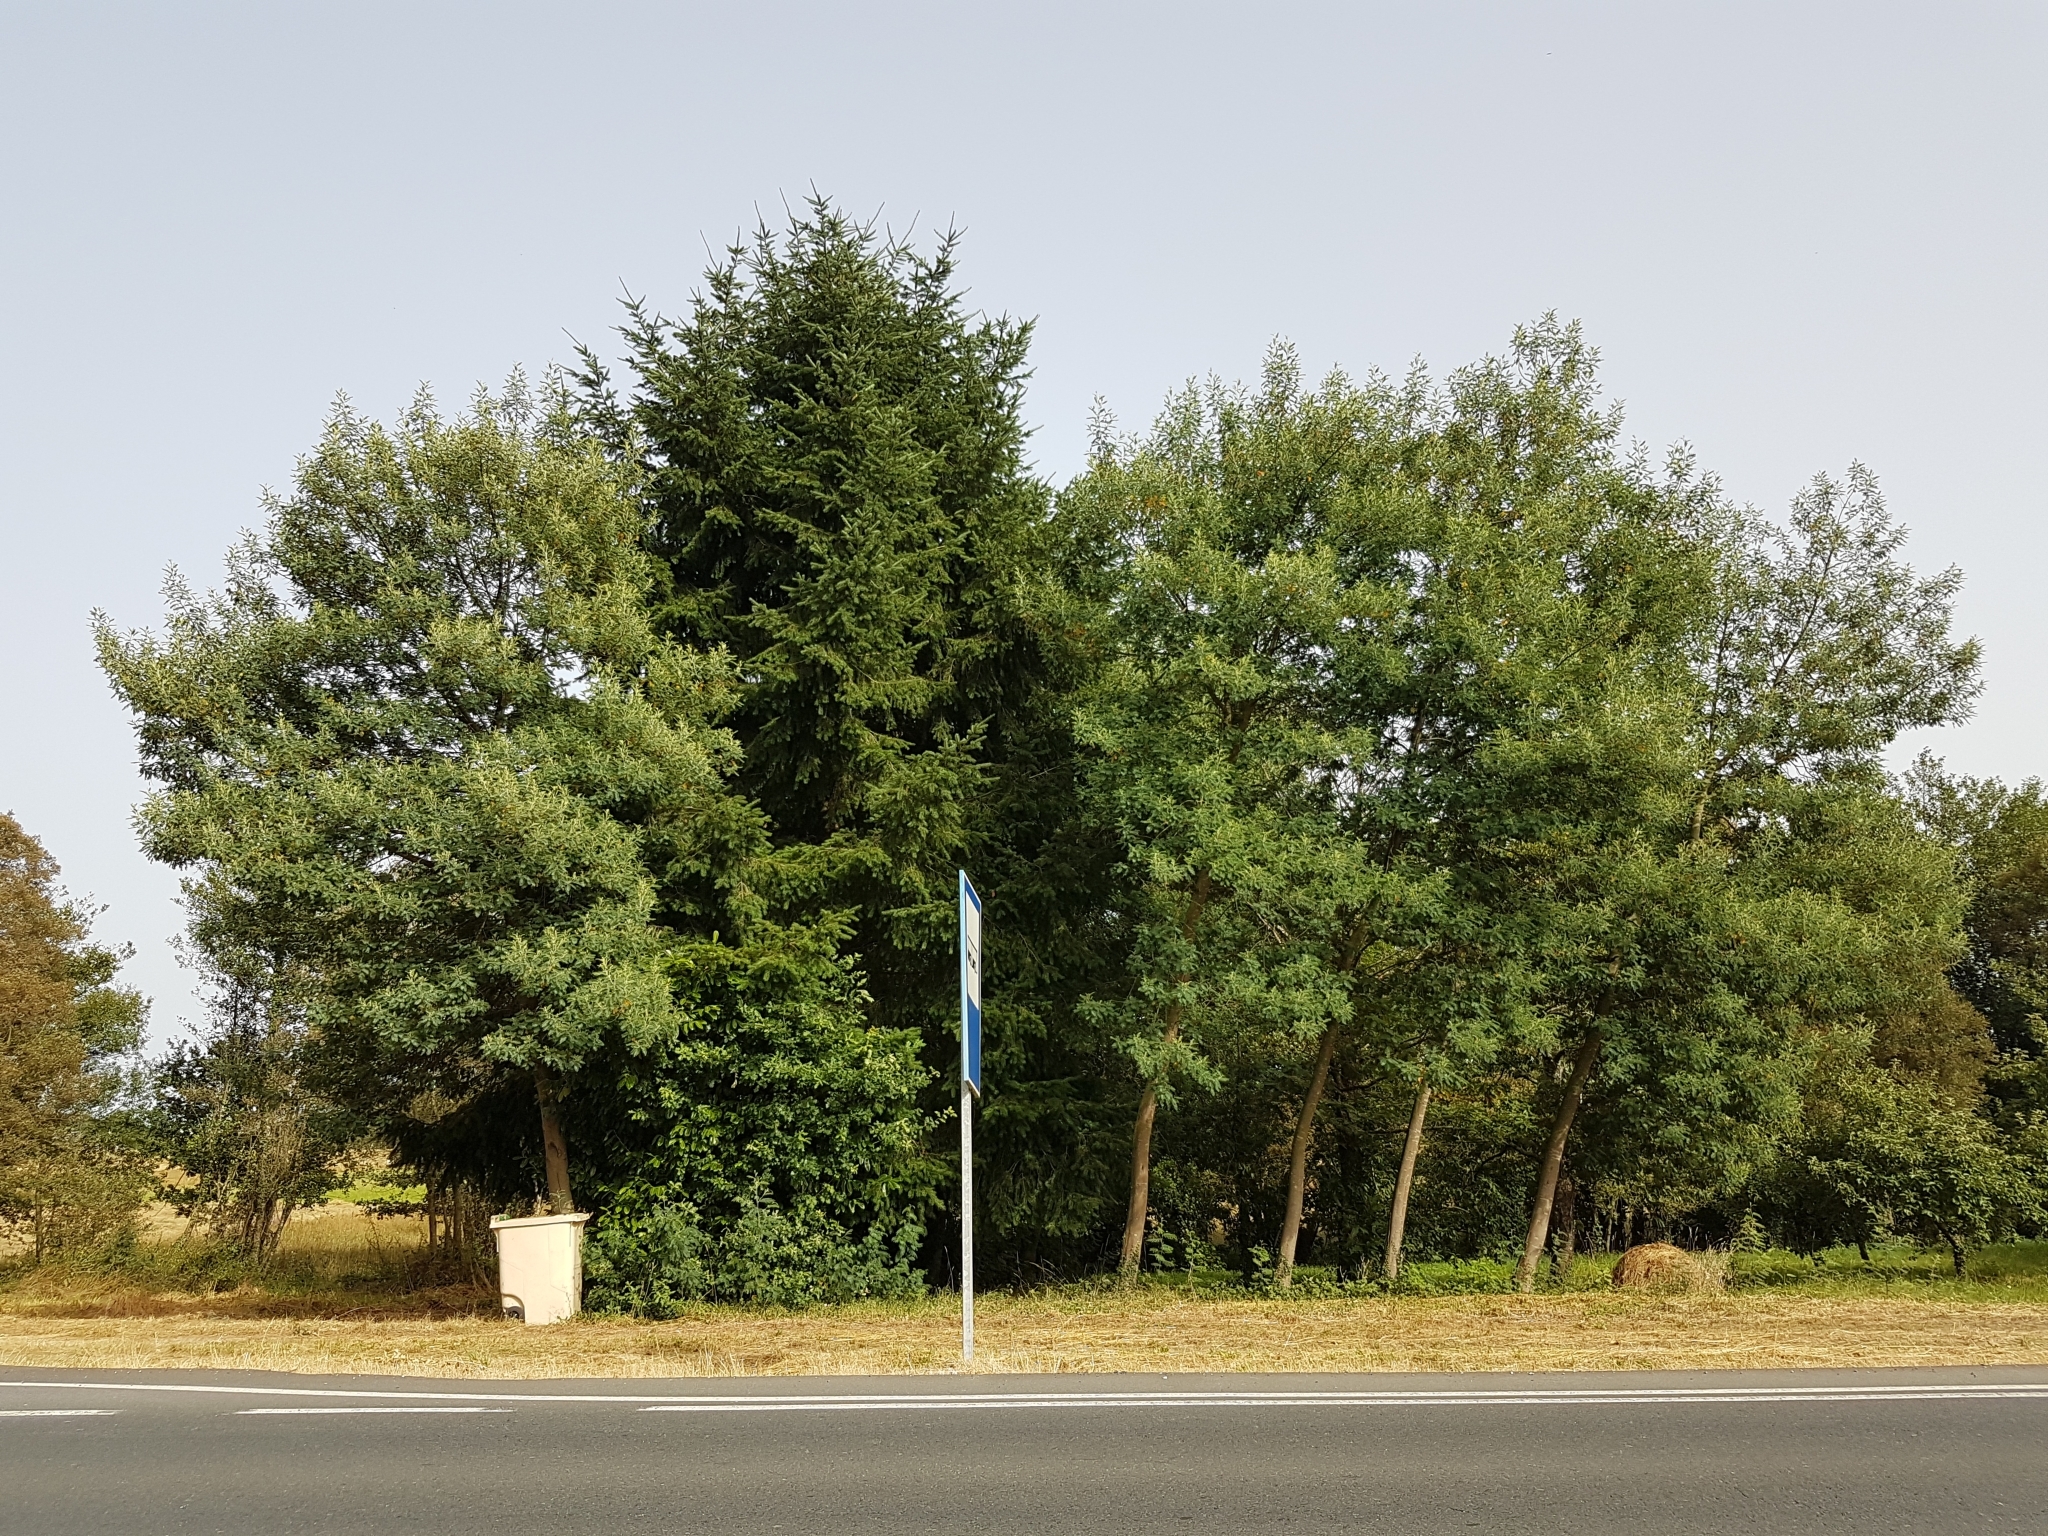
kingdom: Plantae
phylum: Tracheophyta
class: Magnoliopsida
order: Fabales
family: Fabaceae
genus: Acacia
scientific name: Acacia dealbata
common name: Silver wattle
